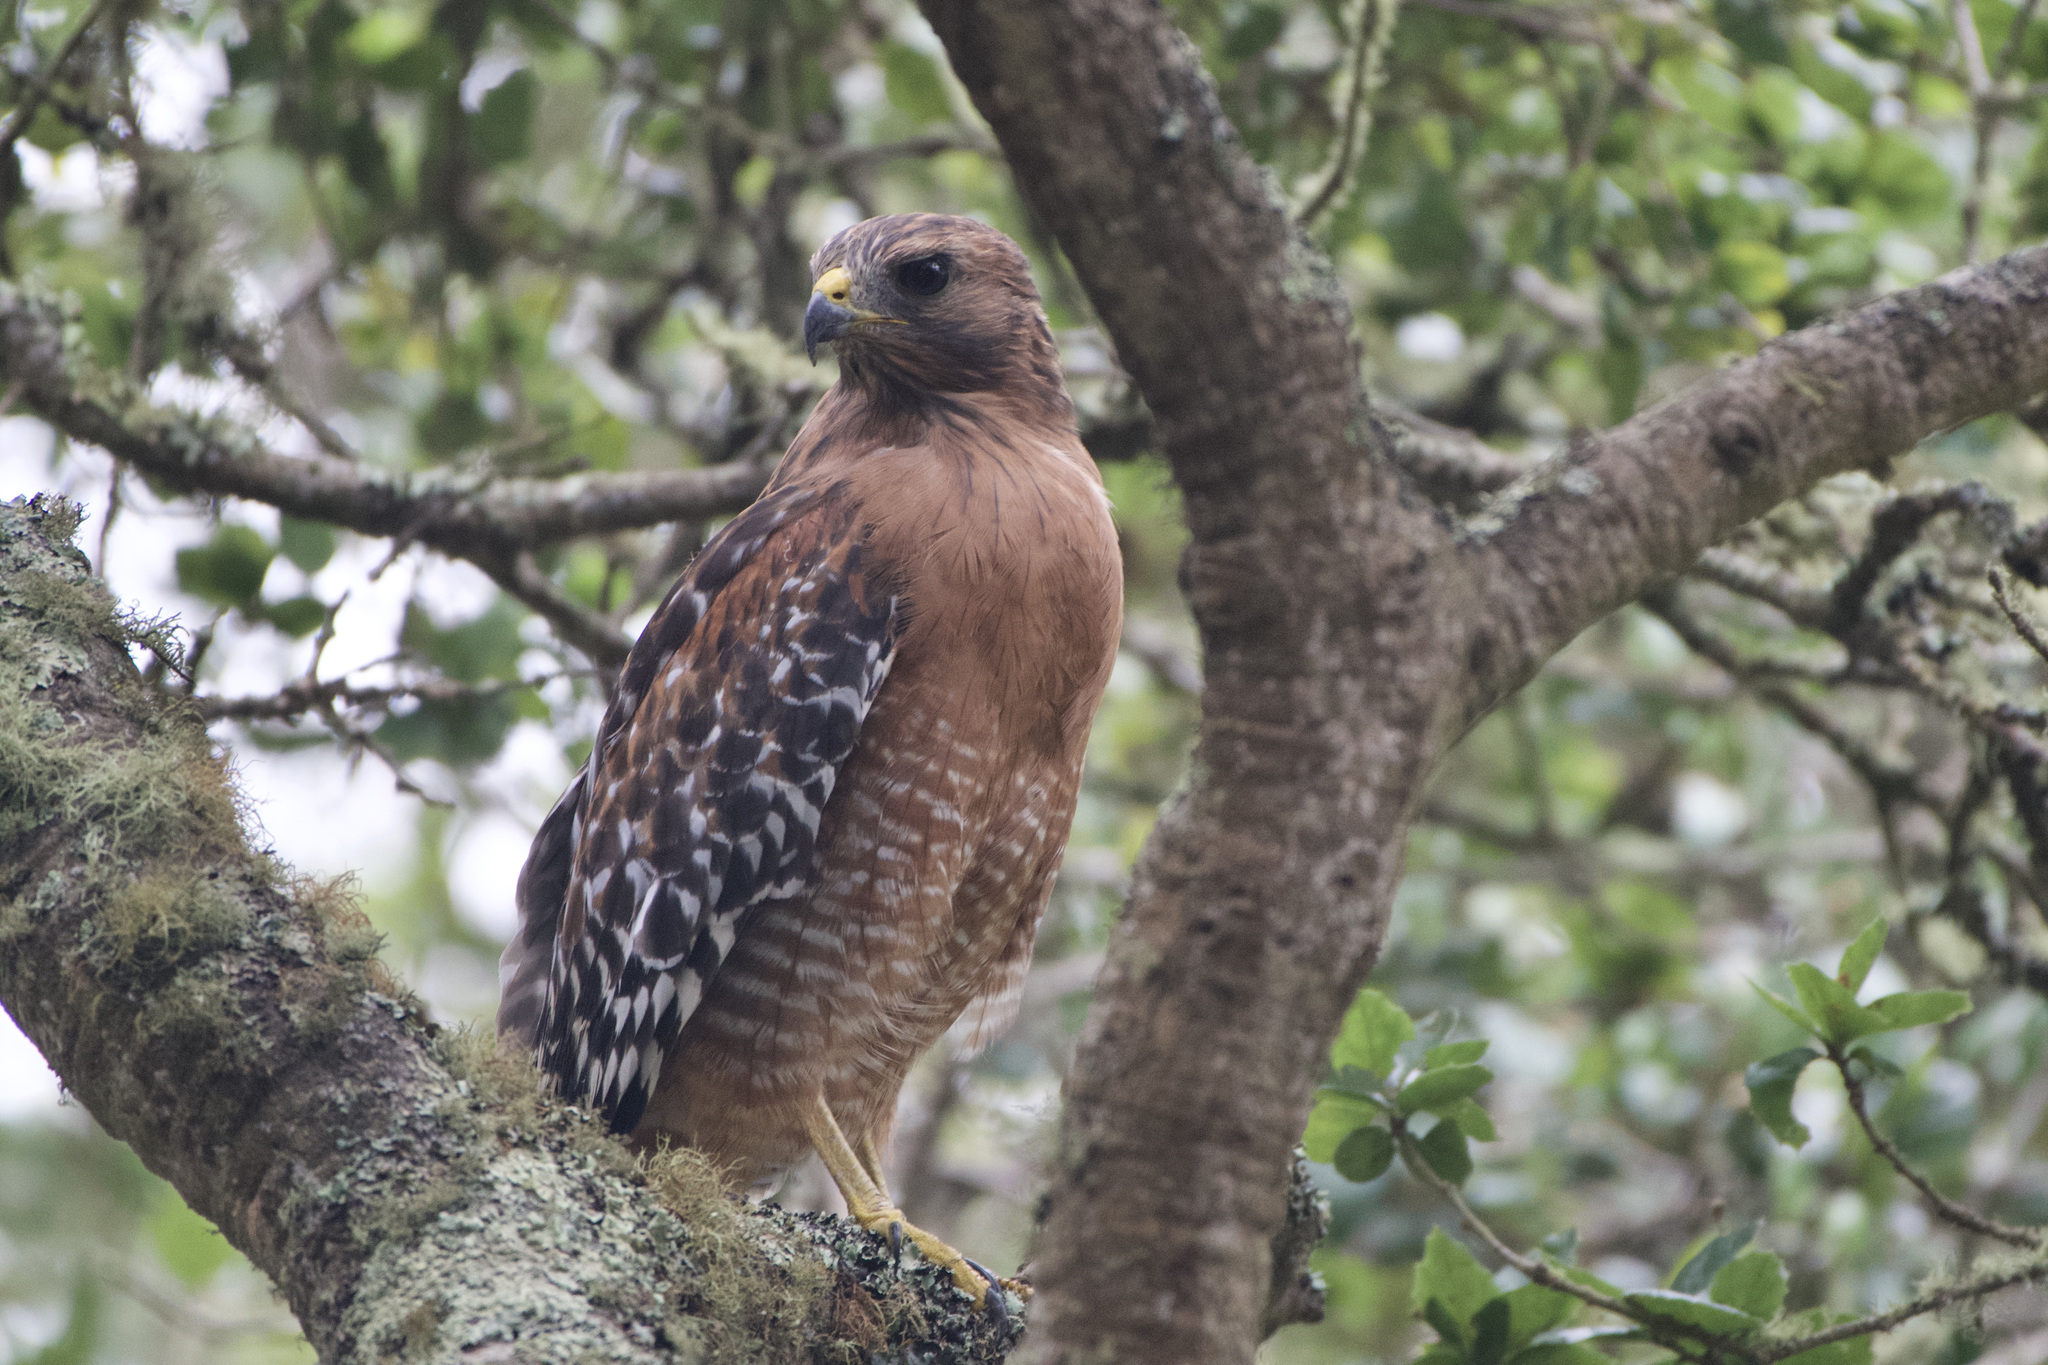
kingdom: Animalia
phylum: Chordata
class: Aves
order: Accipitriformes
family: Accipitridae
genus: Buteo
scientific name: Buteo lineatus
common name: Red-shouldered hawk
